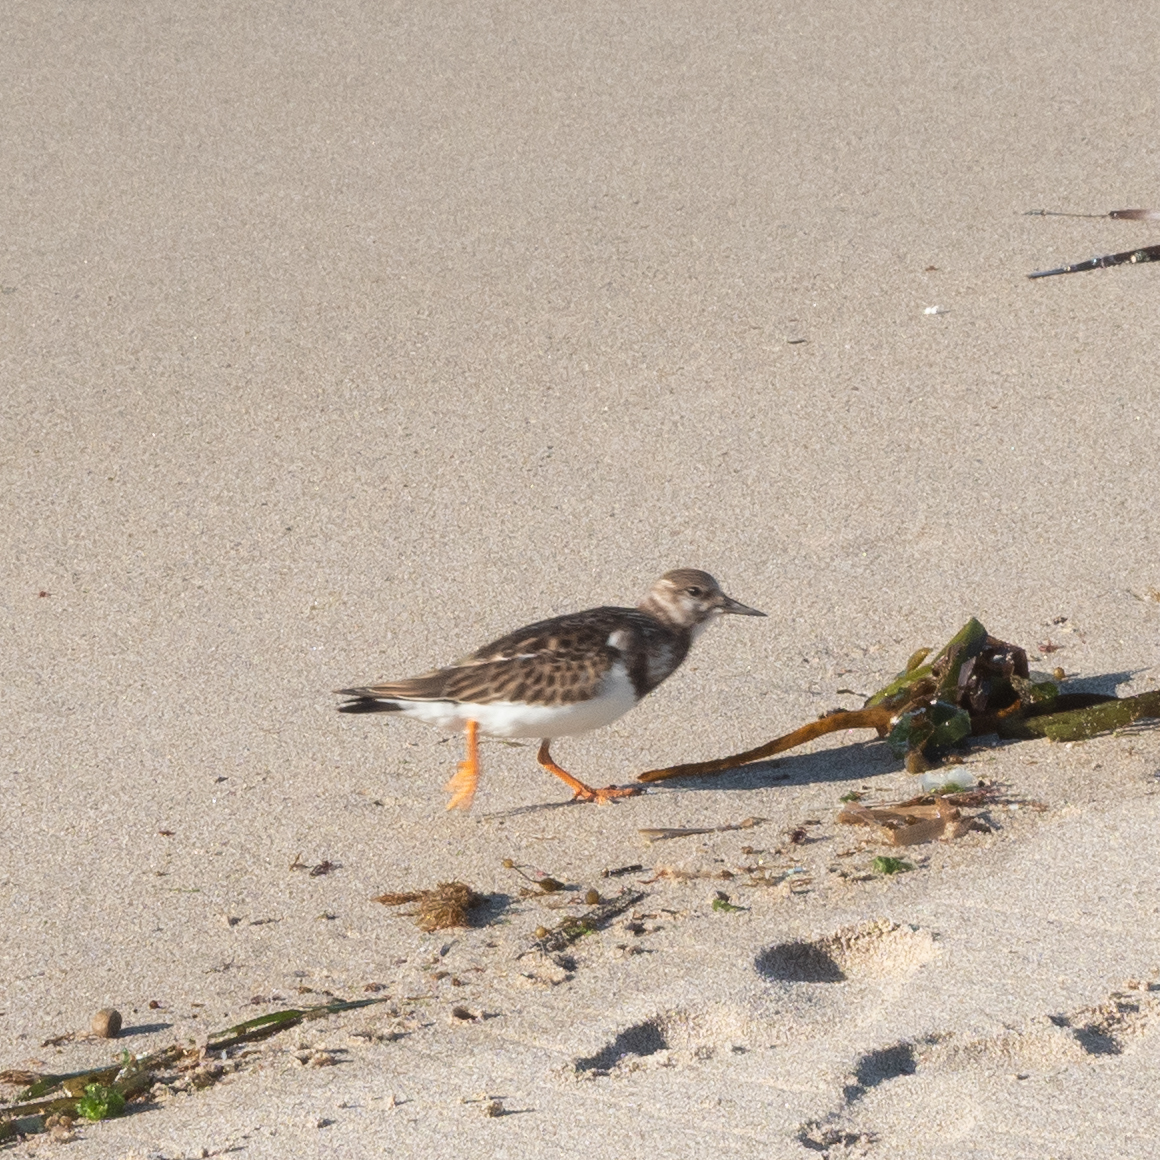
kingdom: Animalia
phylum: Chordata
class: Aves
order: Charadriiformes
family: Scolopacidae
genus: Arenaria
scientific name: Arenaria interpres
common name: Ruddy turnstone
